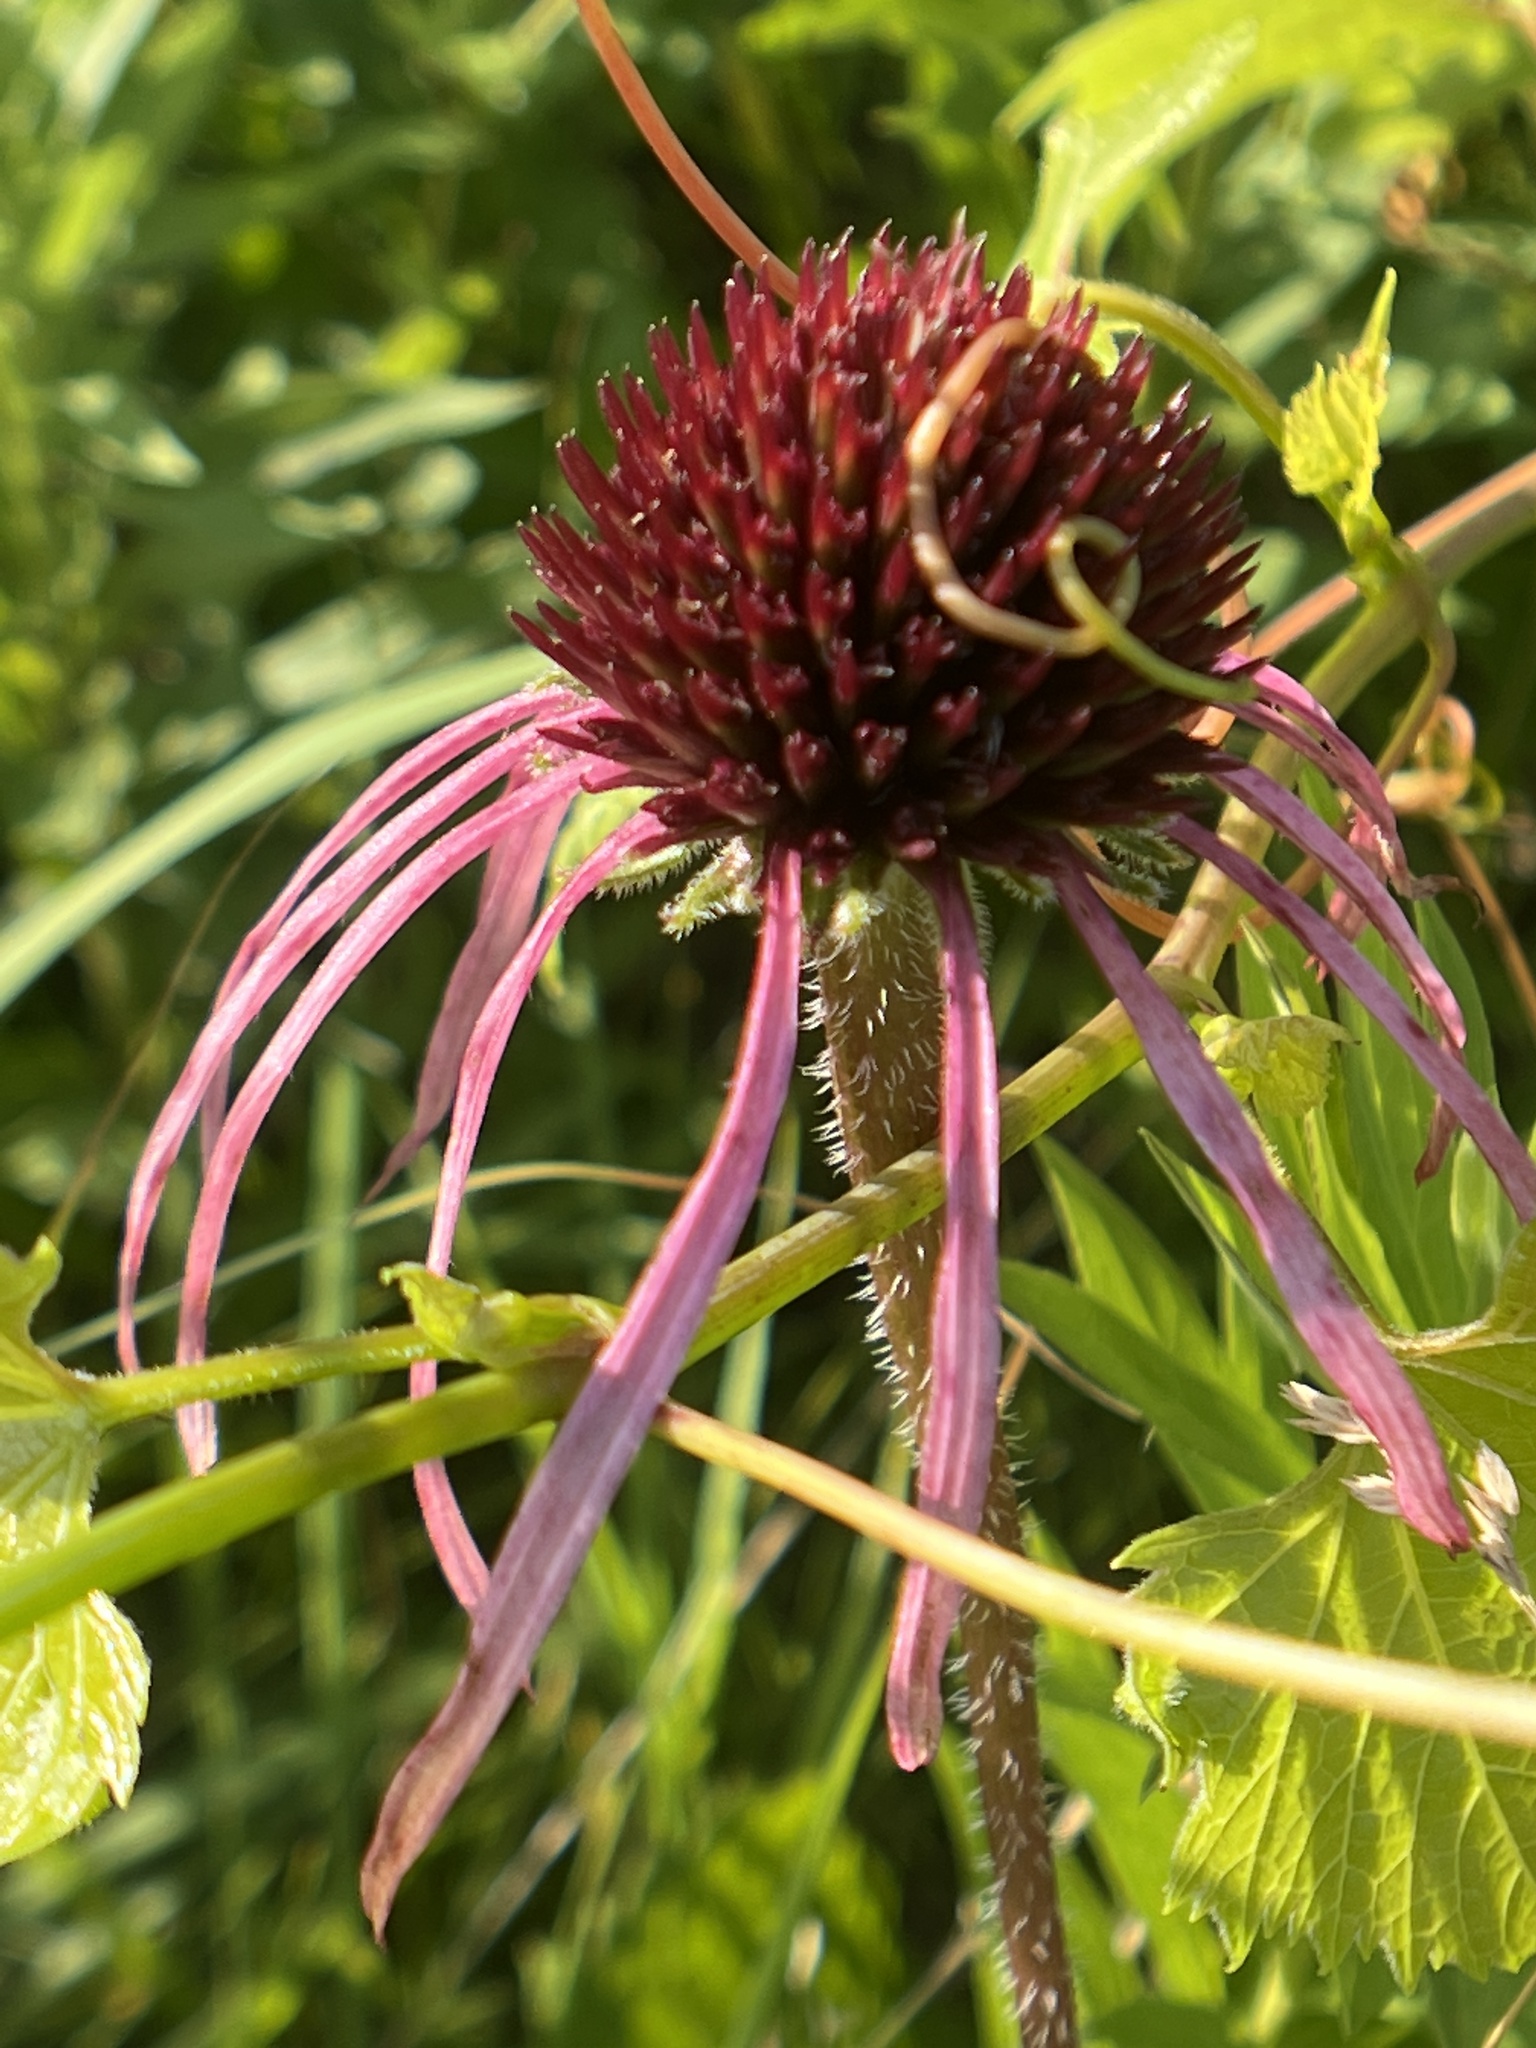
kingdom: Plantae
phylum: Tracheophyta
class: Magnoliopsida
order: Asterales
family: Asteraceae
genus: Echinacea
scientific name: Echinacea pallida
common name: Pale echinacea
